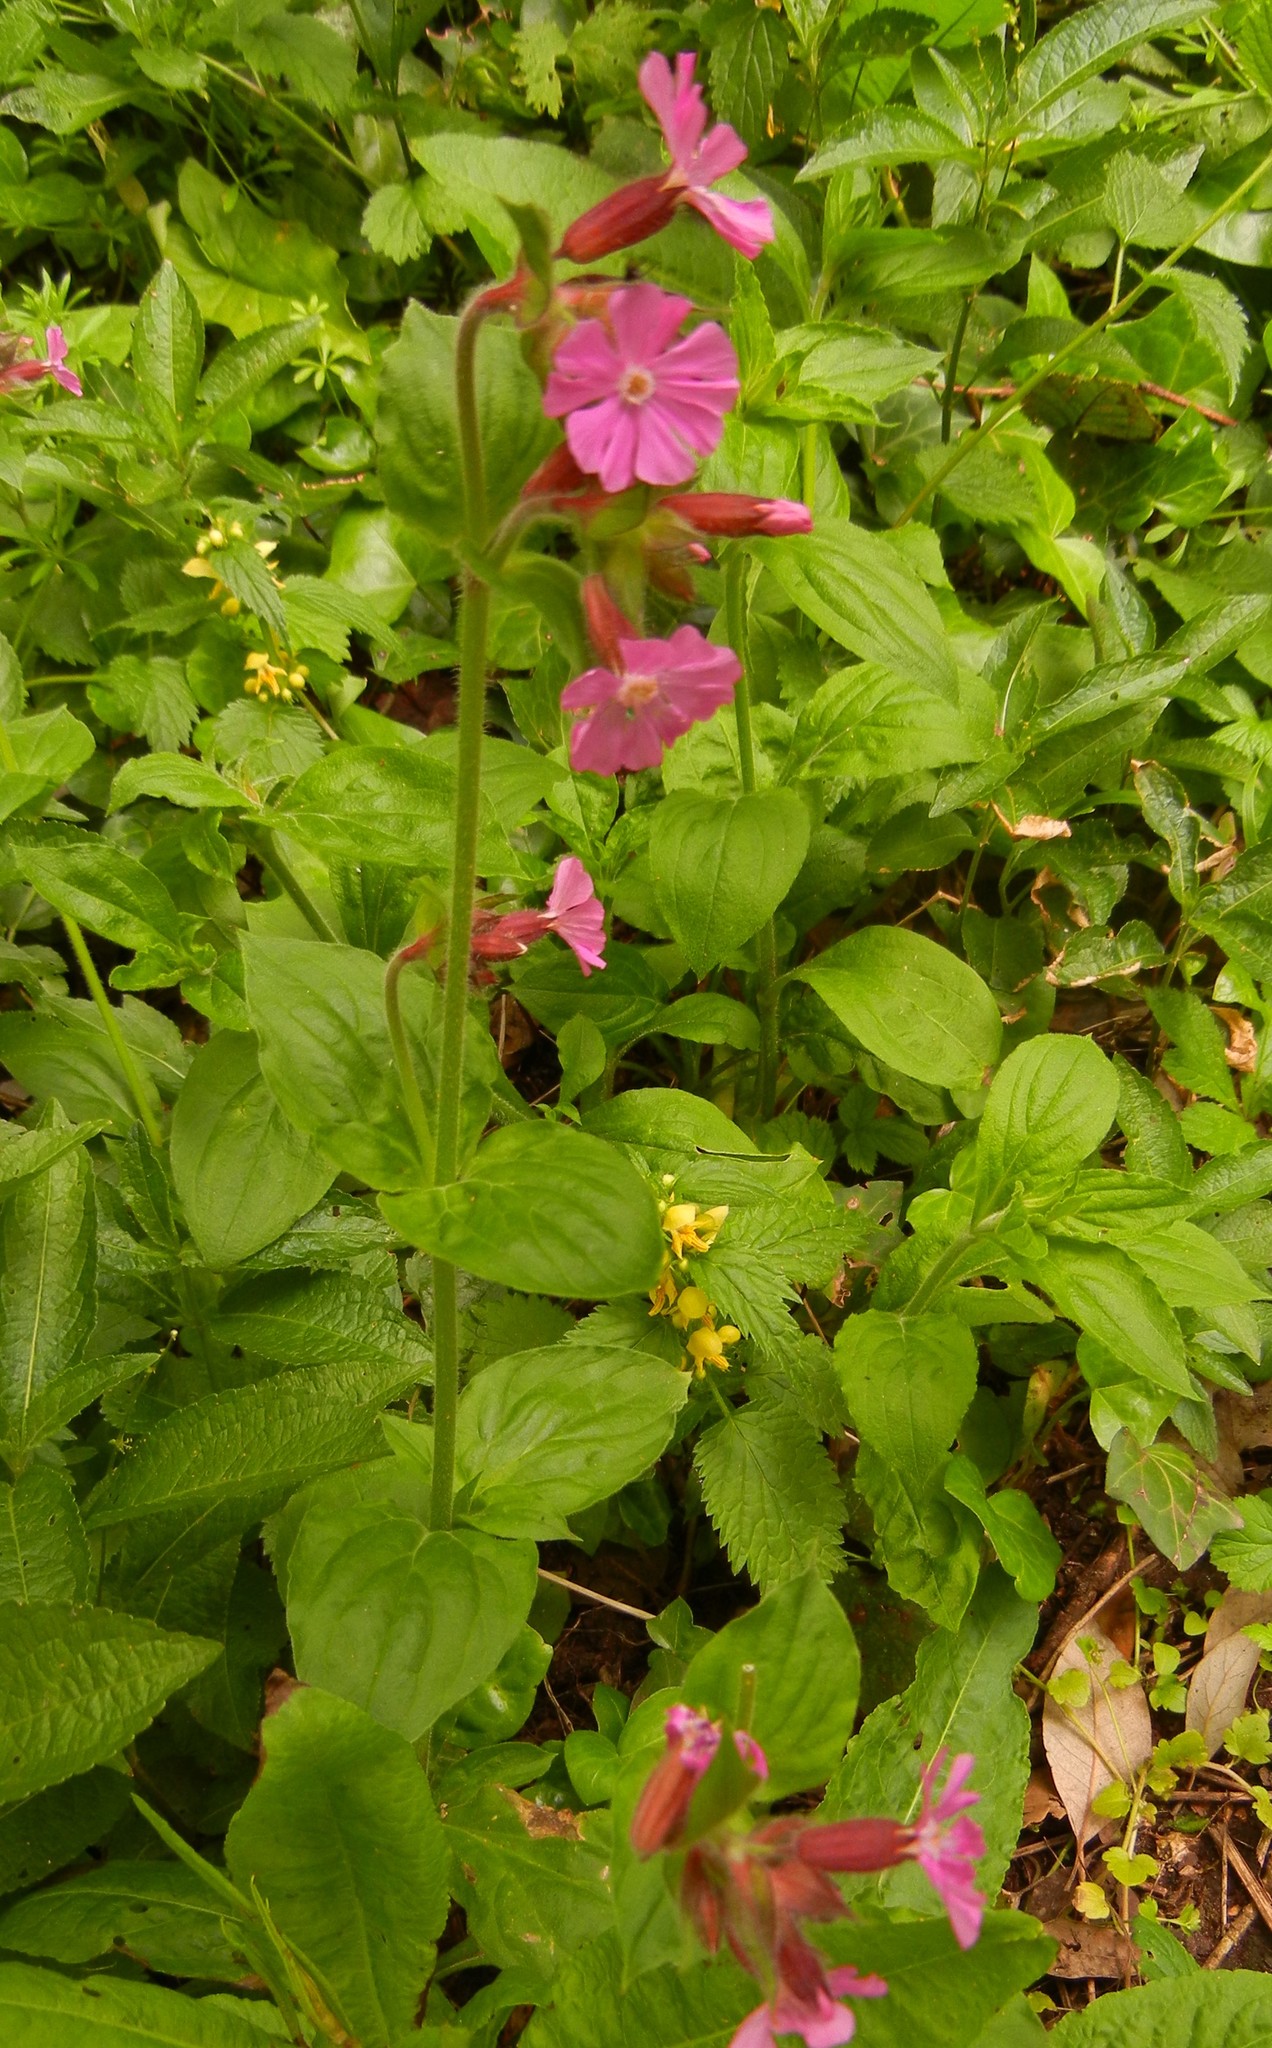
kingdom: Plantae
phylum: Tracheophyta
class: Magnoliopsida
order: Caryophyllales
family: Caryophyllaceae
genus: Silene
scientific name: Silene dioica
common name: Red campion
